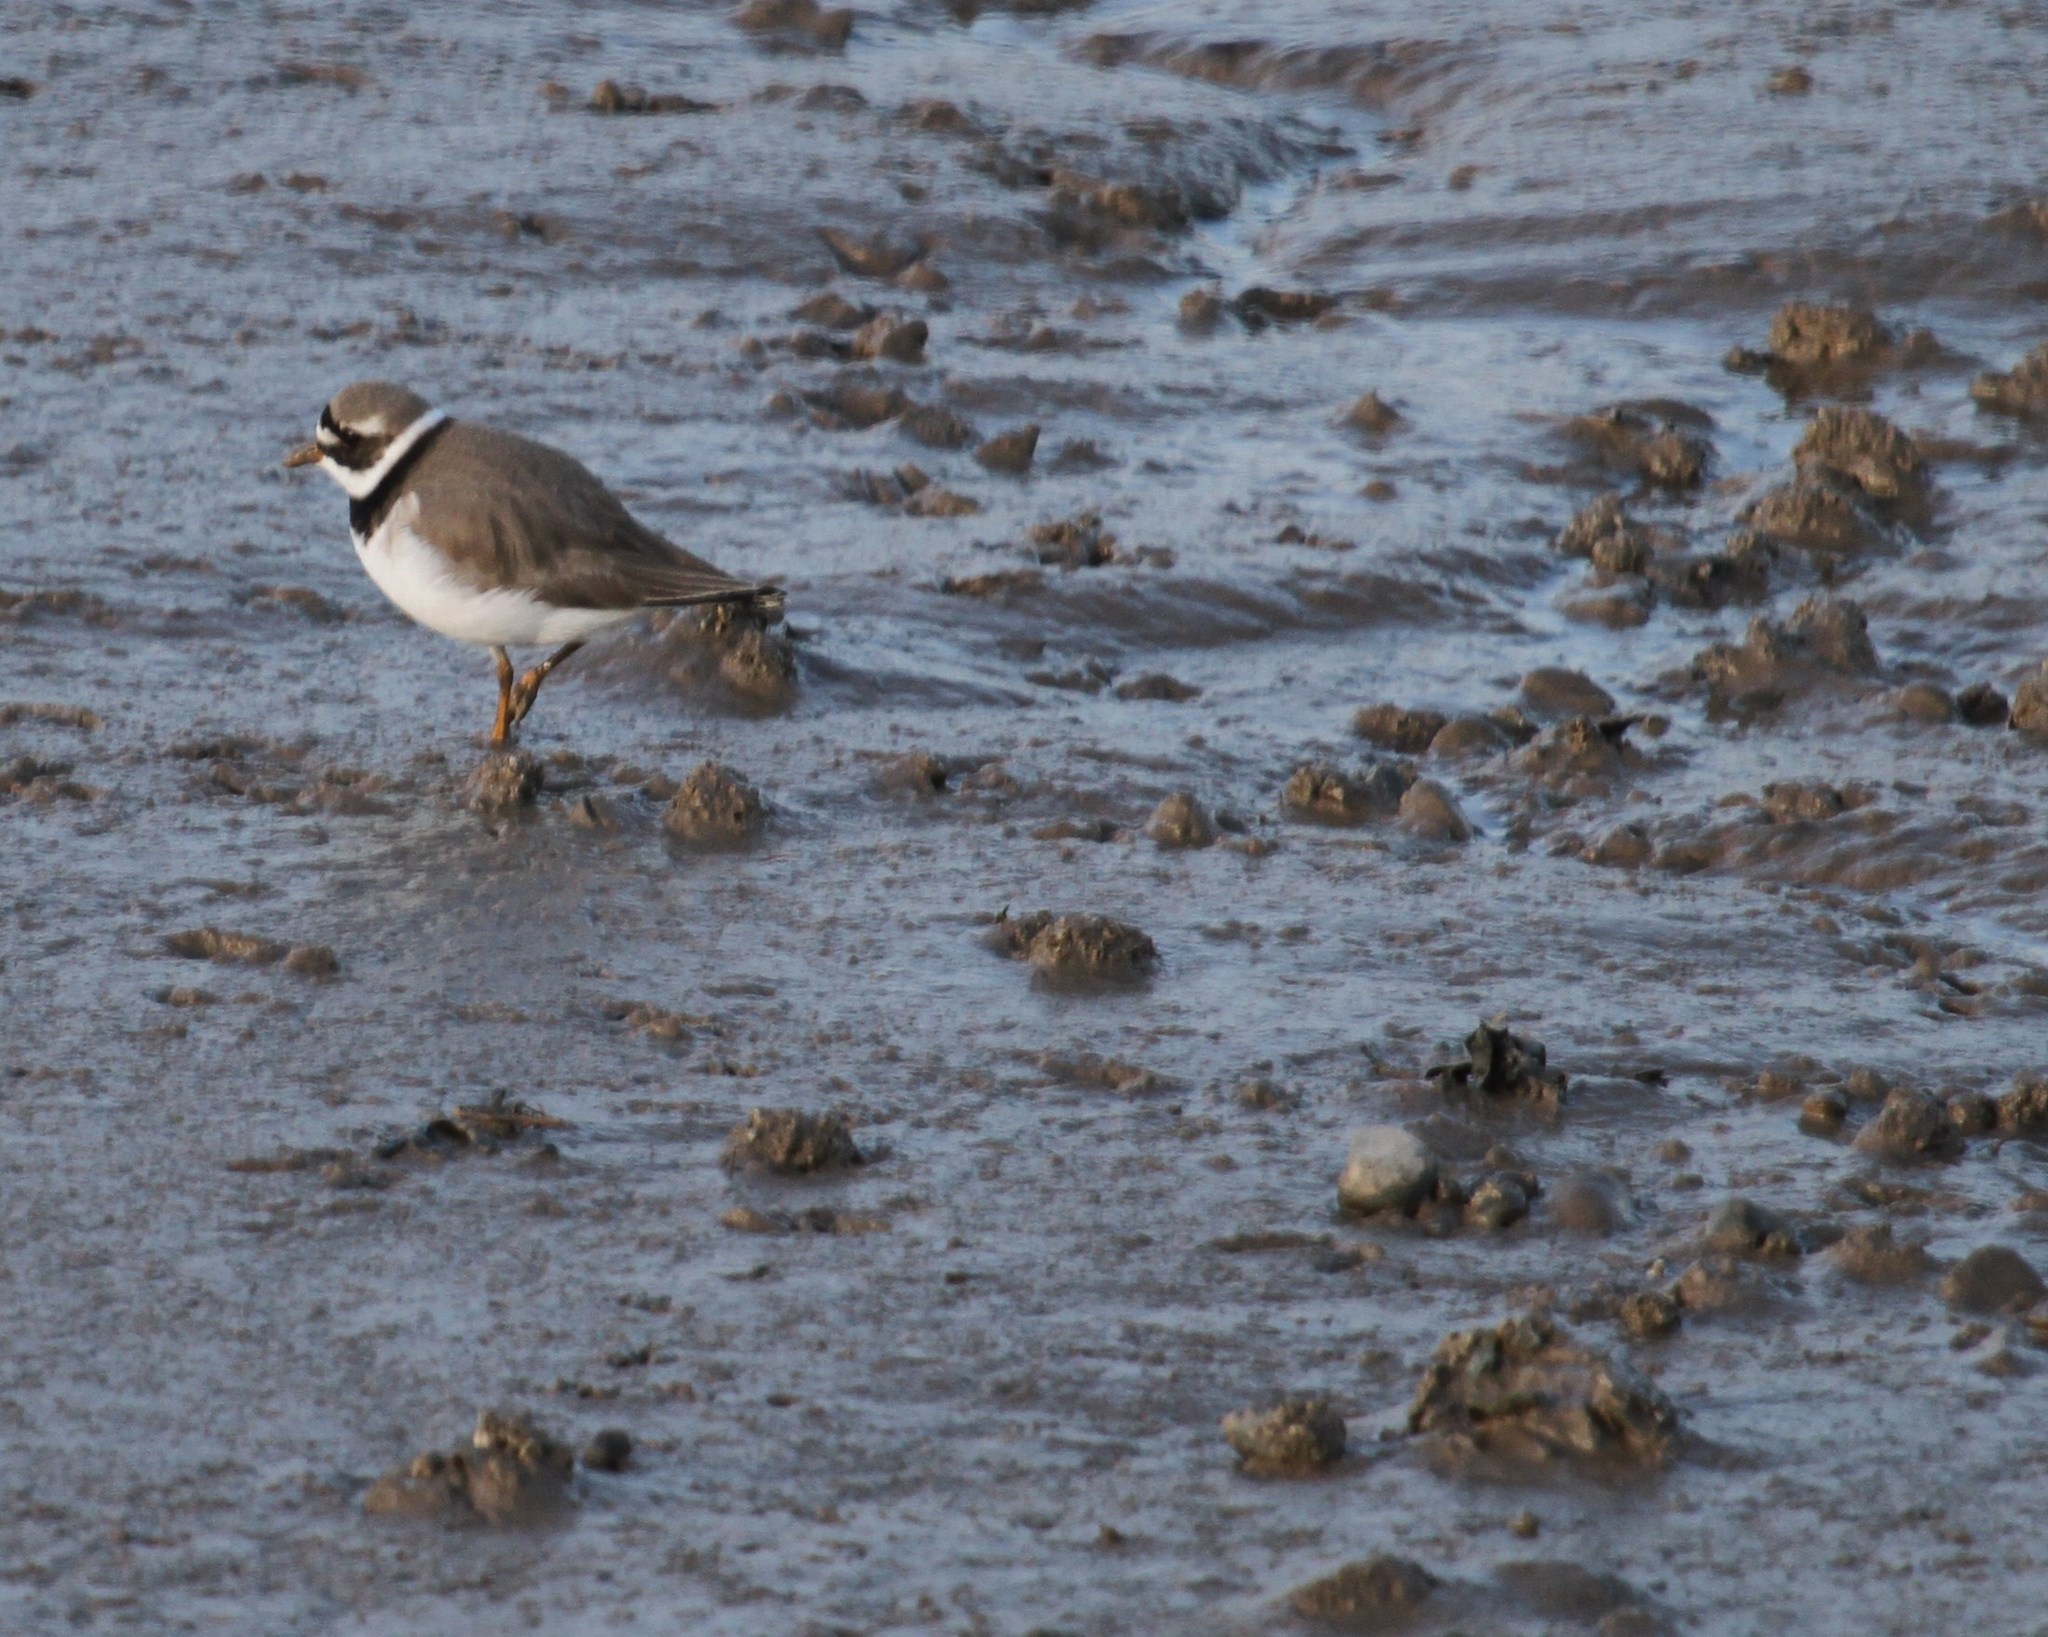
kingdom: Animalia
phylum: Chordata
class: Aves
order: Charadriiformes
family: Charadriidae
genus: Charadrius
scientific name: Charadrius hiaticula
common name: Common ringed plover
